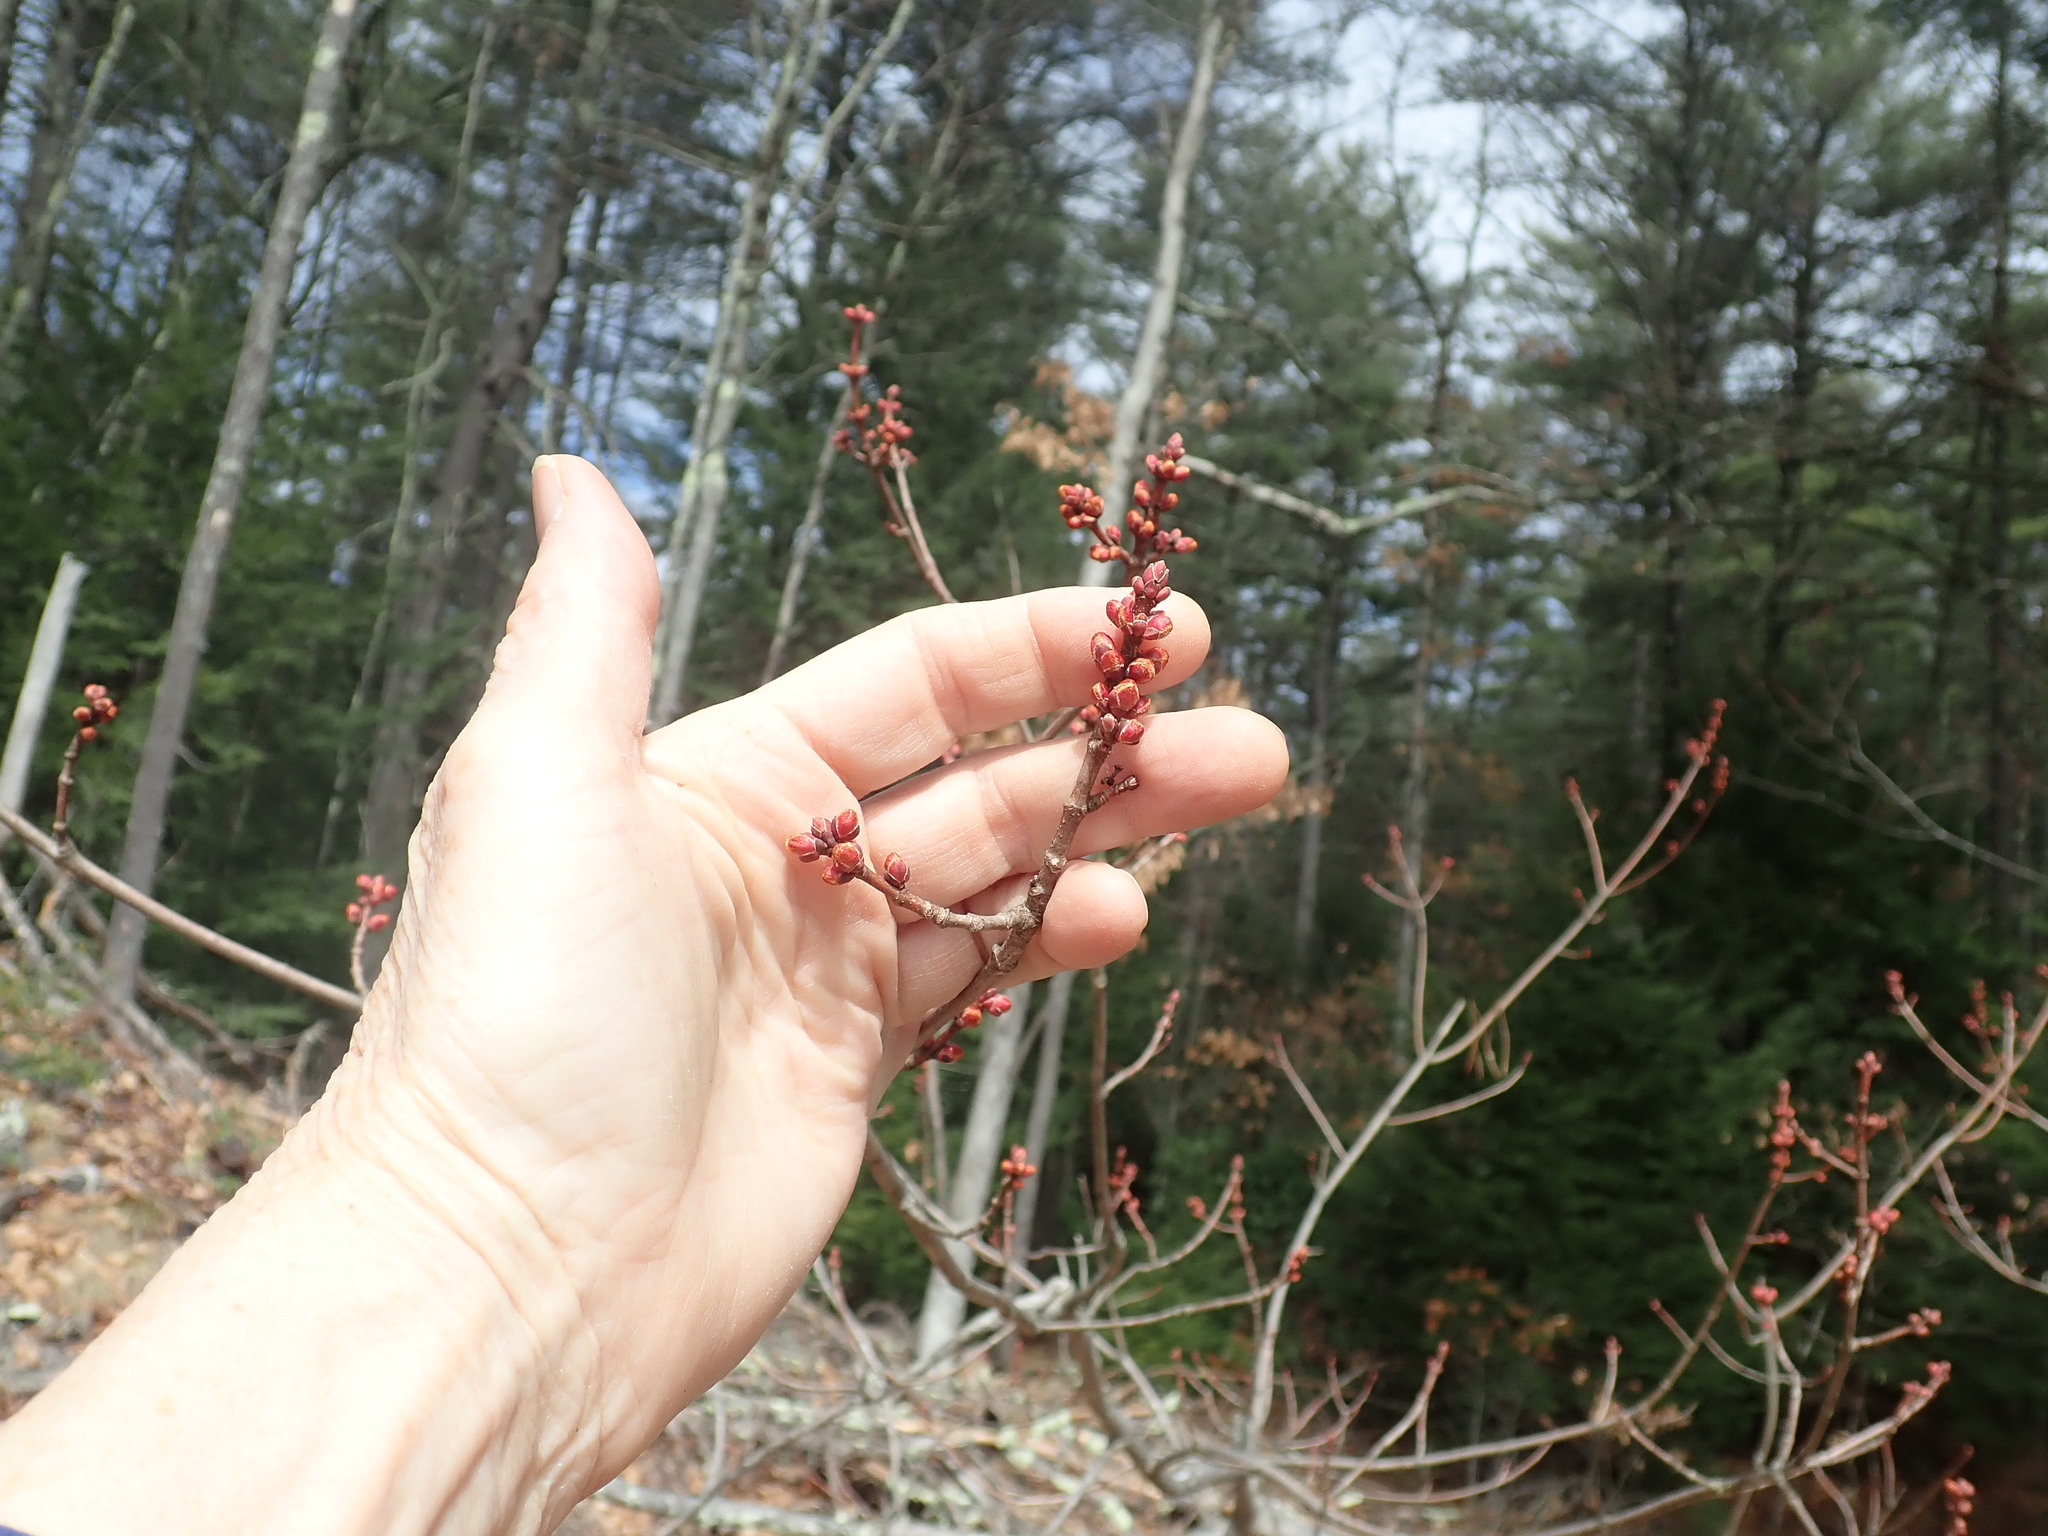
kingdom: Plantae
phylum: Tracheophyta
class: Magnoliopsida
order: Sapindales
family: Sapindaceae
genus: Acer
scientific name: Acer rubrum
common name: Red maple
